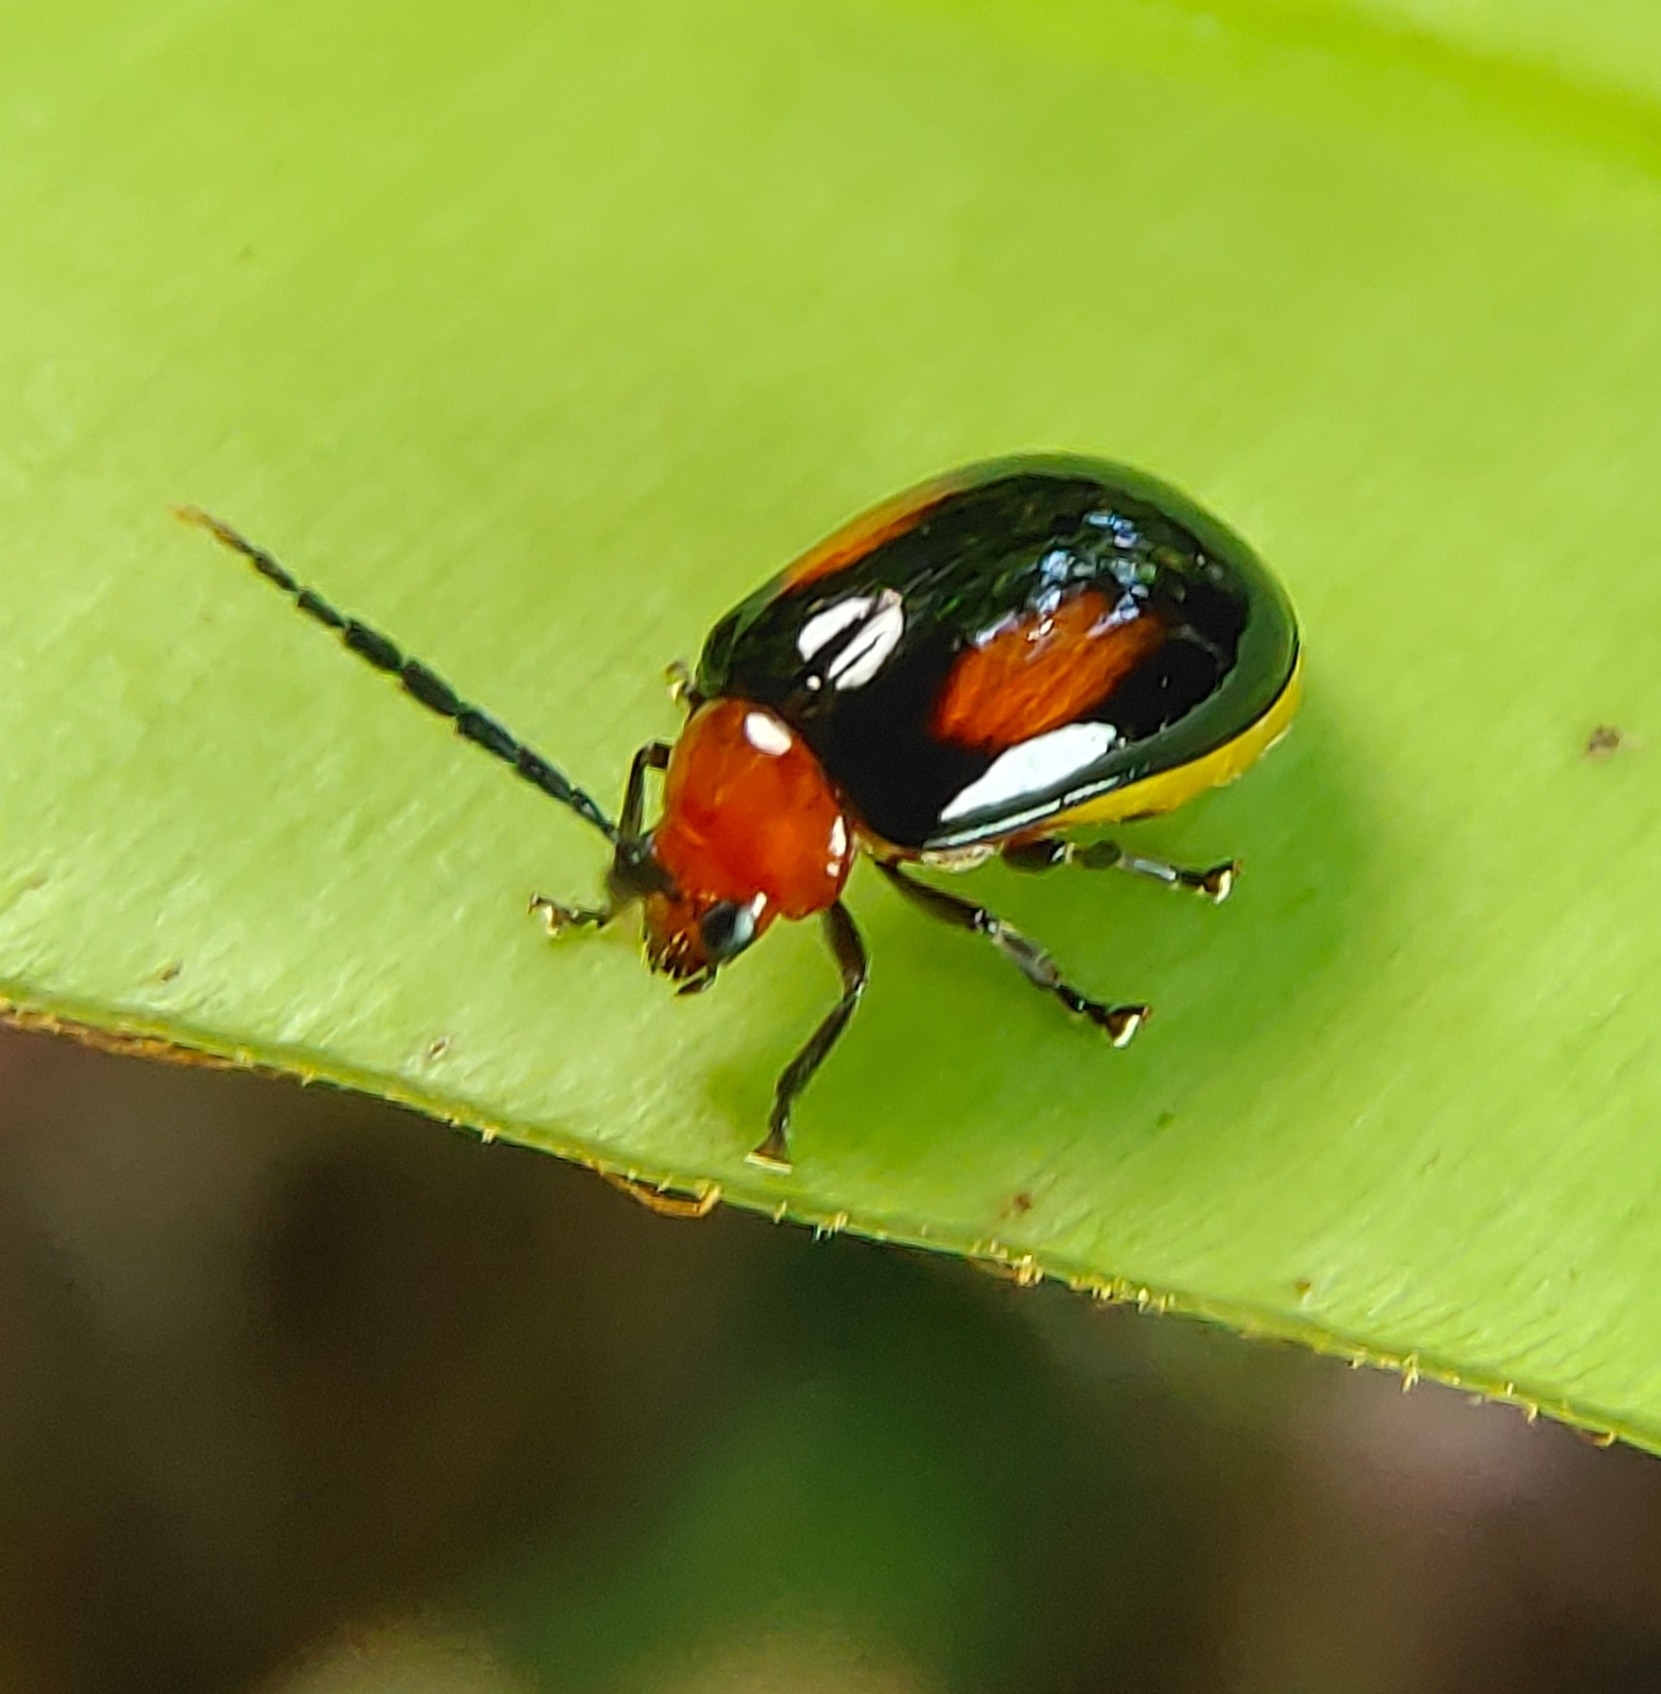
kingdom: Animalia
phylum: Arthropoda
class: Insecta
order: Coleoptera
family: Chrysomelidae
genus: Arcastes
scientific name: Arcastes biplagiata
